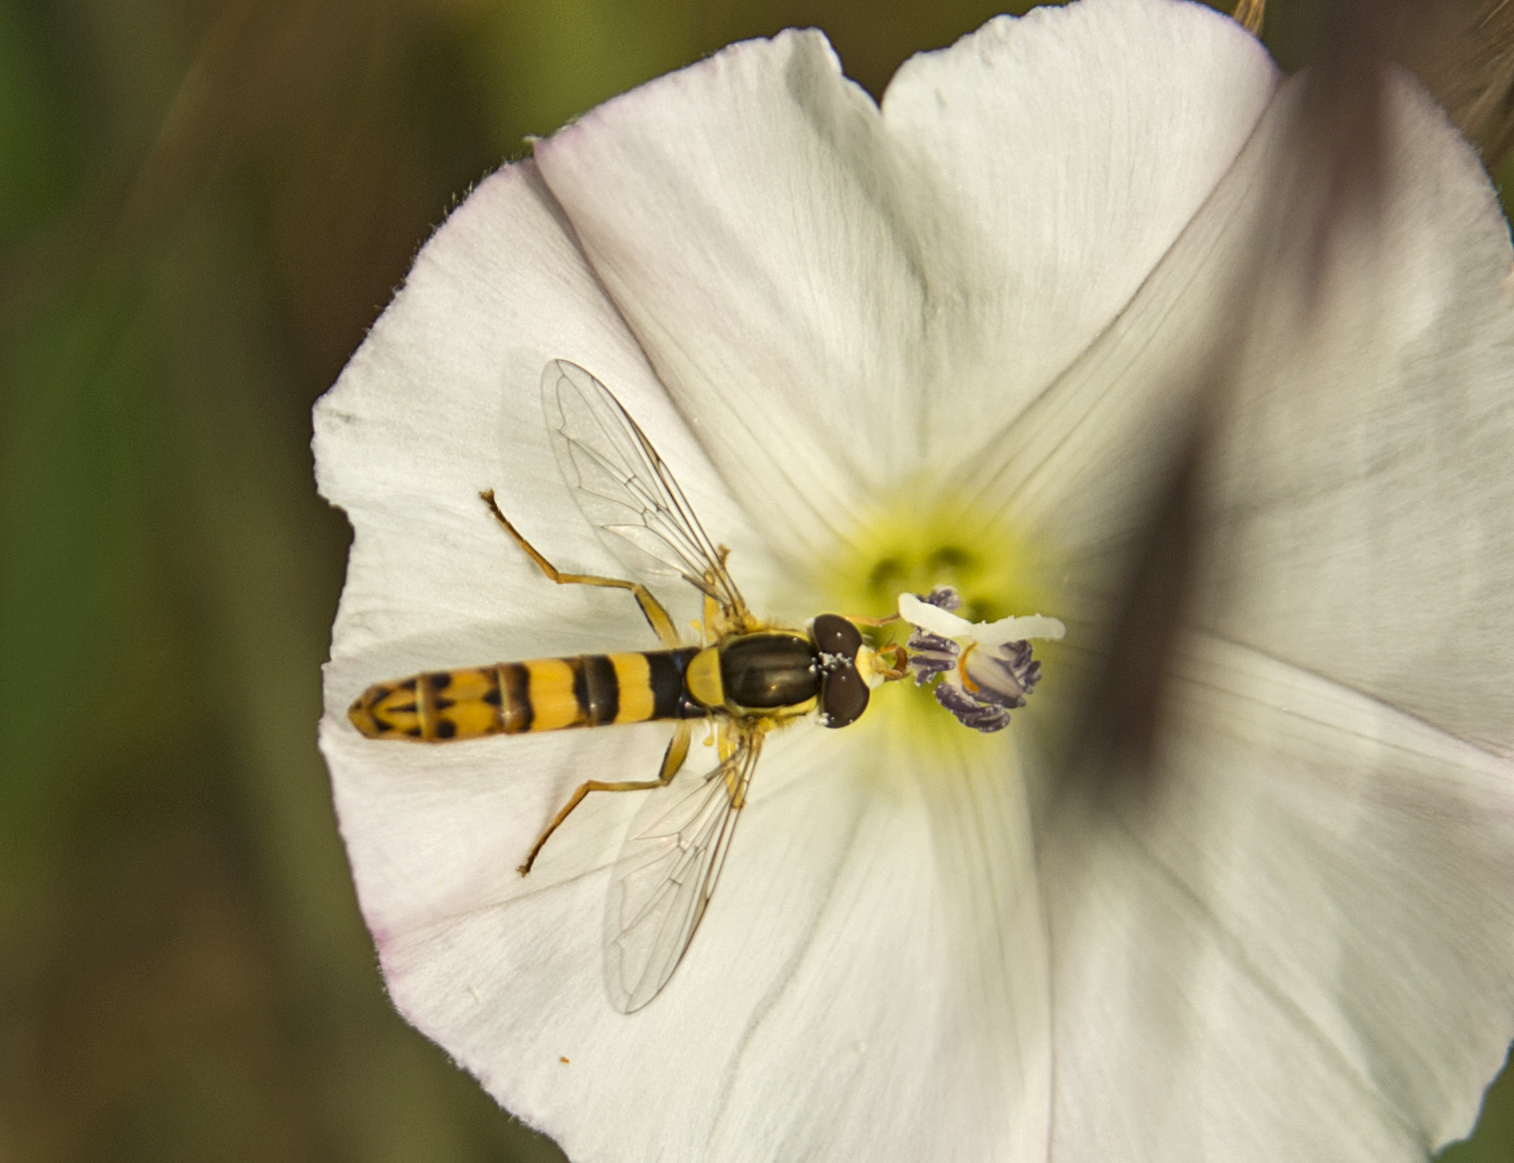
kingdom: Animalia
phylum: Arthropoda
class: Insecta
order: Diptera
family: Syrphidae
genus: Sphaerophoria
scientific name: Sphaerophoria scripta
